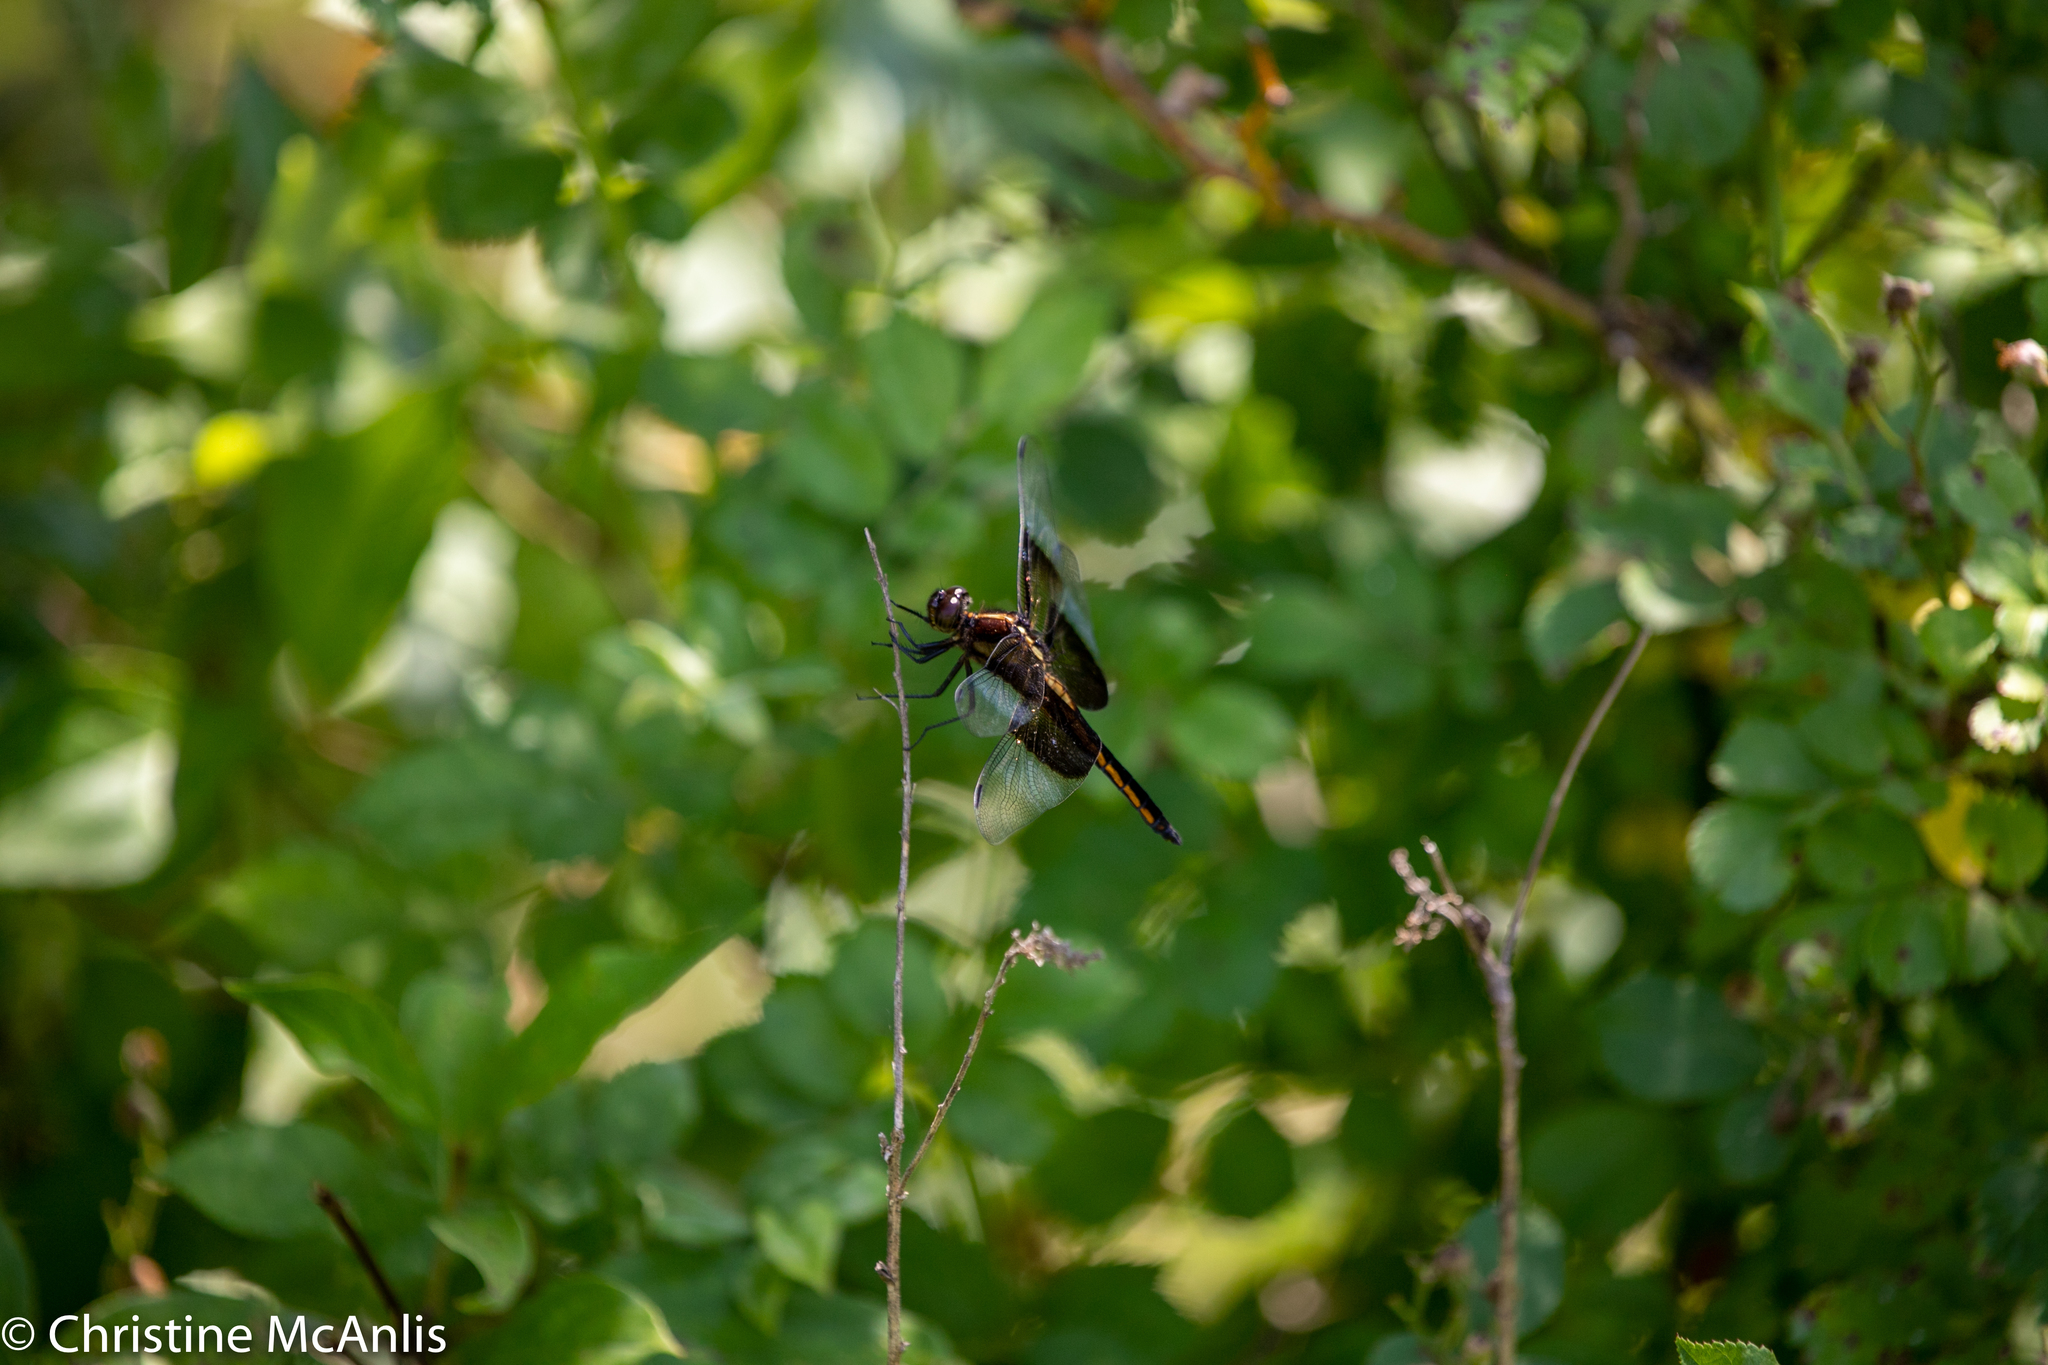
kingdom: Animalia
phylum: Arthropoda
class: Insecta
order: Odonata
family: Libellulidae
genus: Libellula
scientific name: Libellula luctuosa
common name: Widow skimmer
